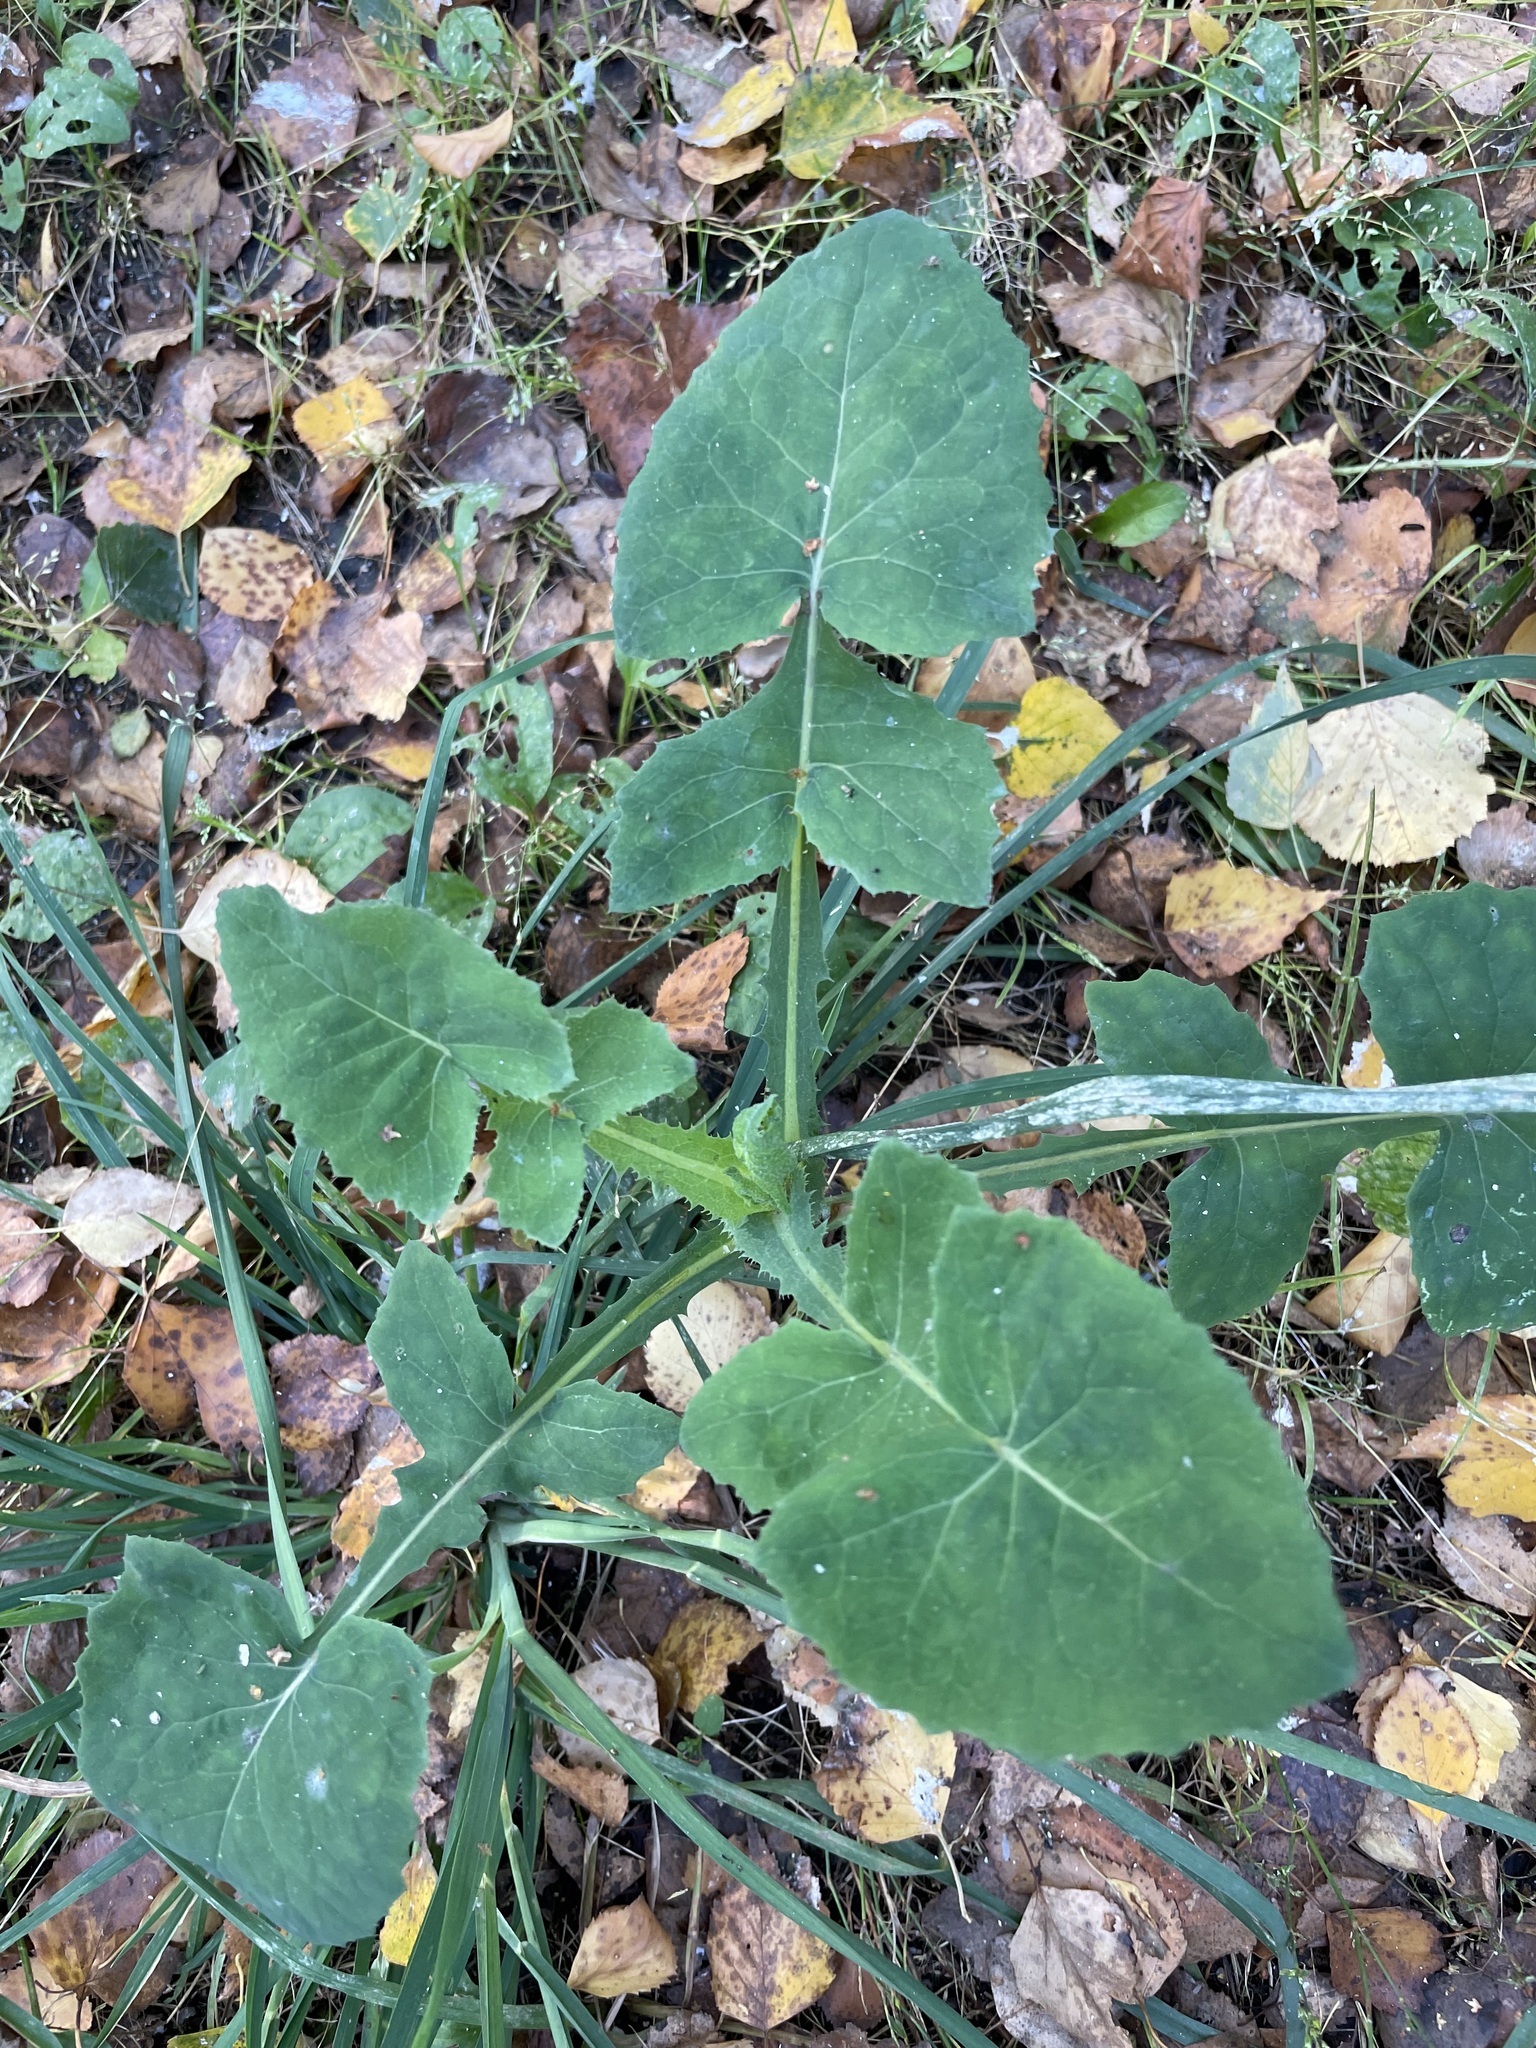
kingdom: Plantae
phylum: Tracheophyta
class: Magnoliopsida
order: Asterales
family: Asteraceae
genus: Sonchus
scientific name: Sonchus oleraceus
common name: Common sowthistle
